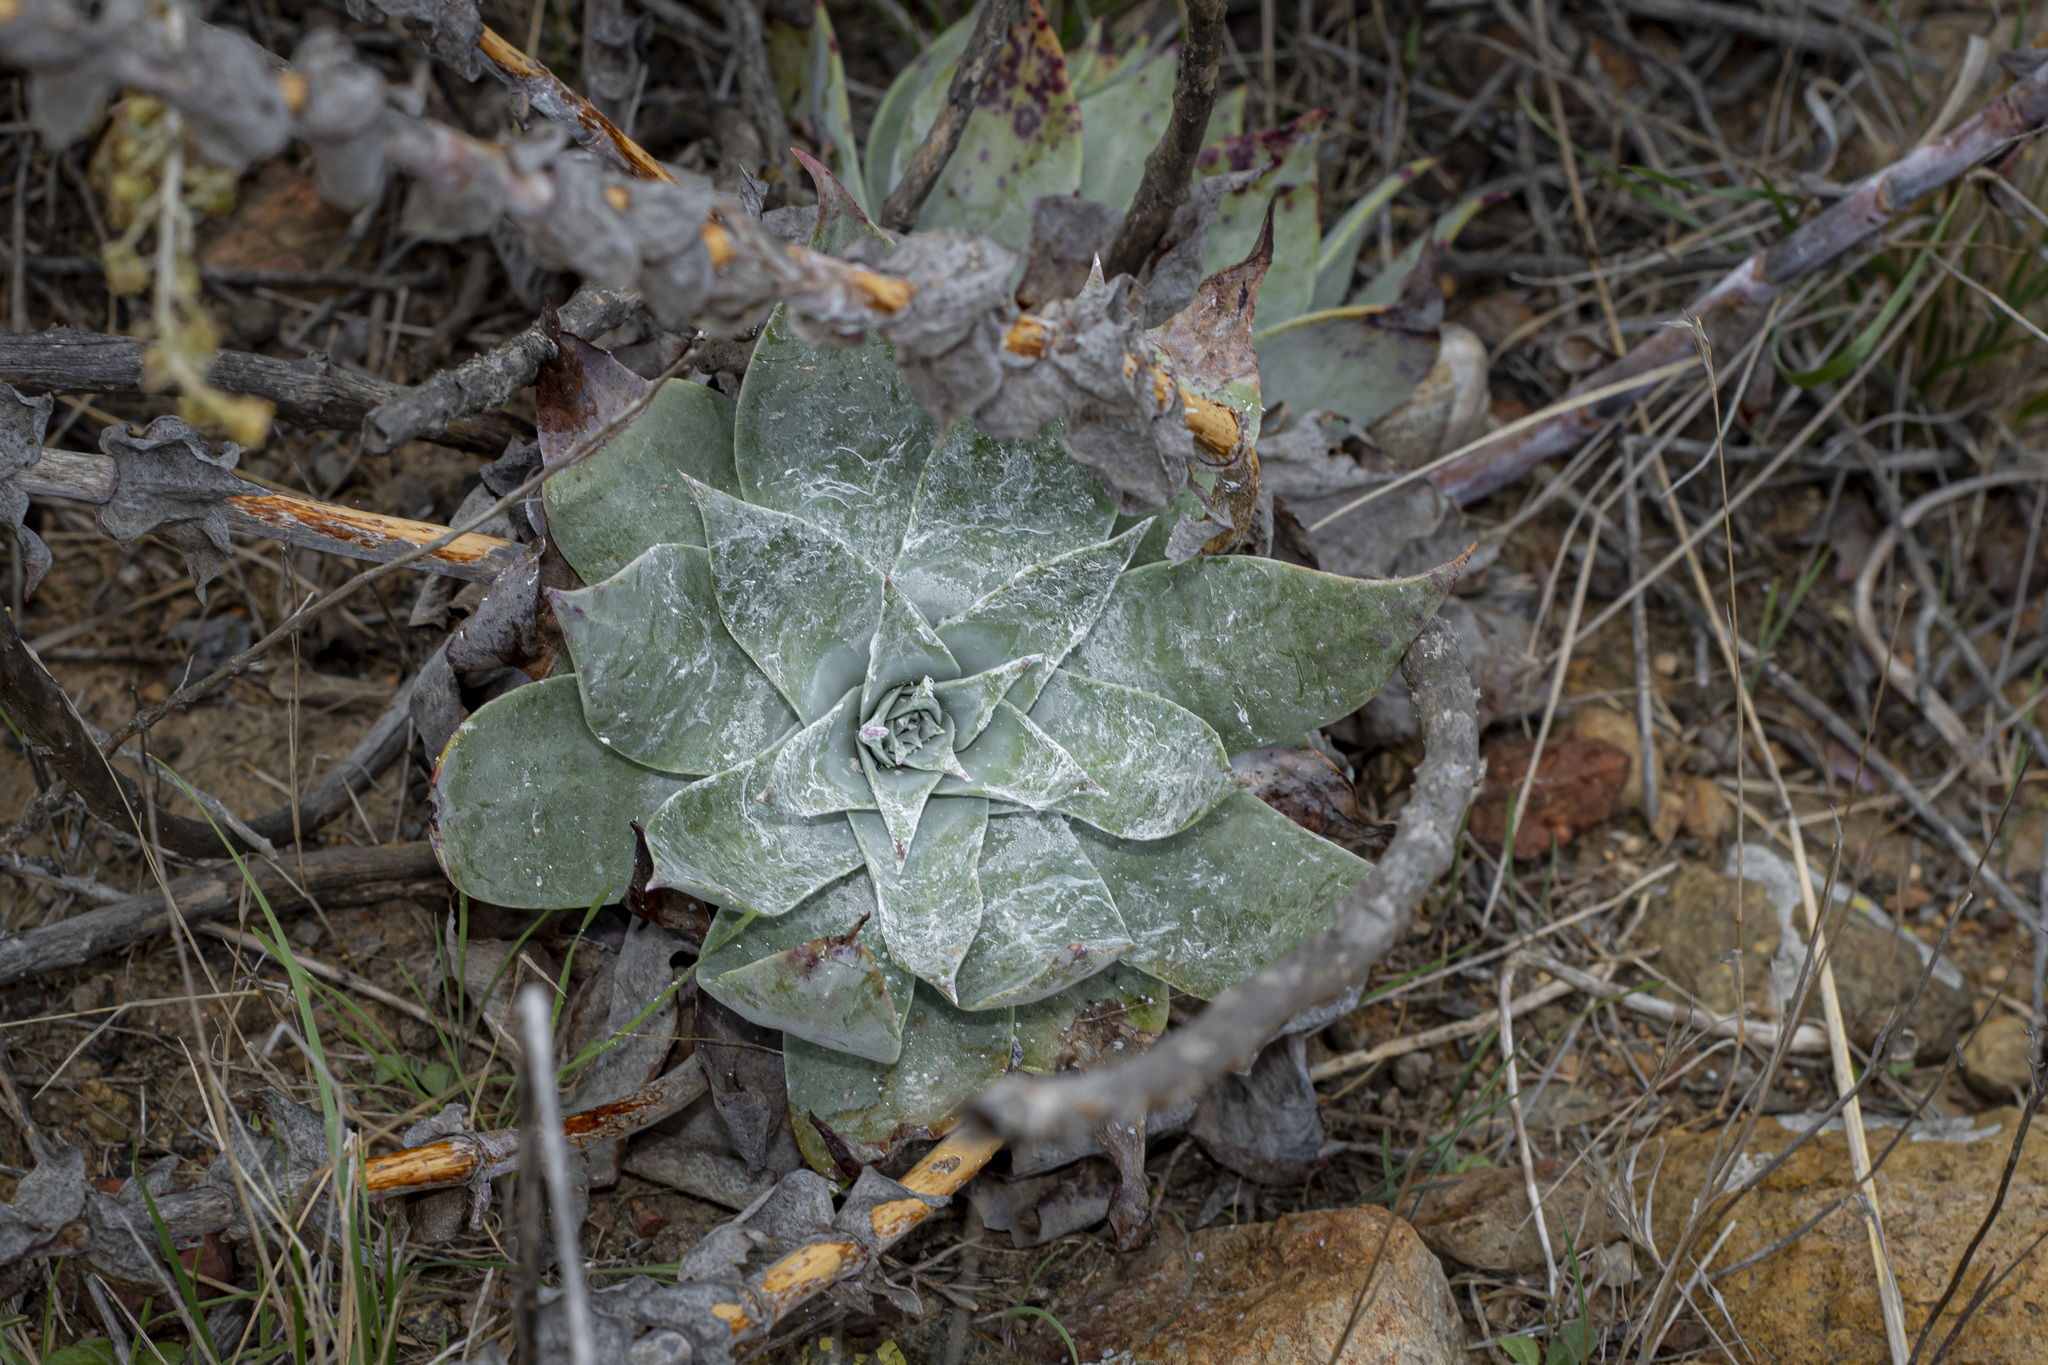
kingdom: Plantae
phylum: Tracheophyta
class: Magnoliopsida
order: Saxifragales
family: Crassulaceae
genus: Dudleya
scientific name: Dudleya pulverulenta
